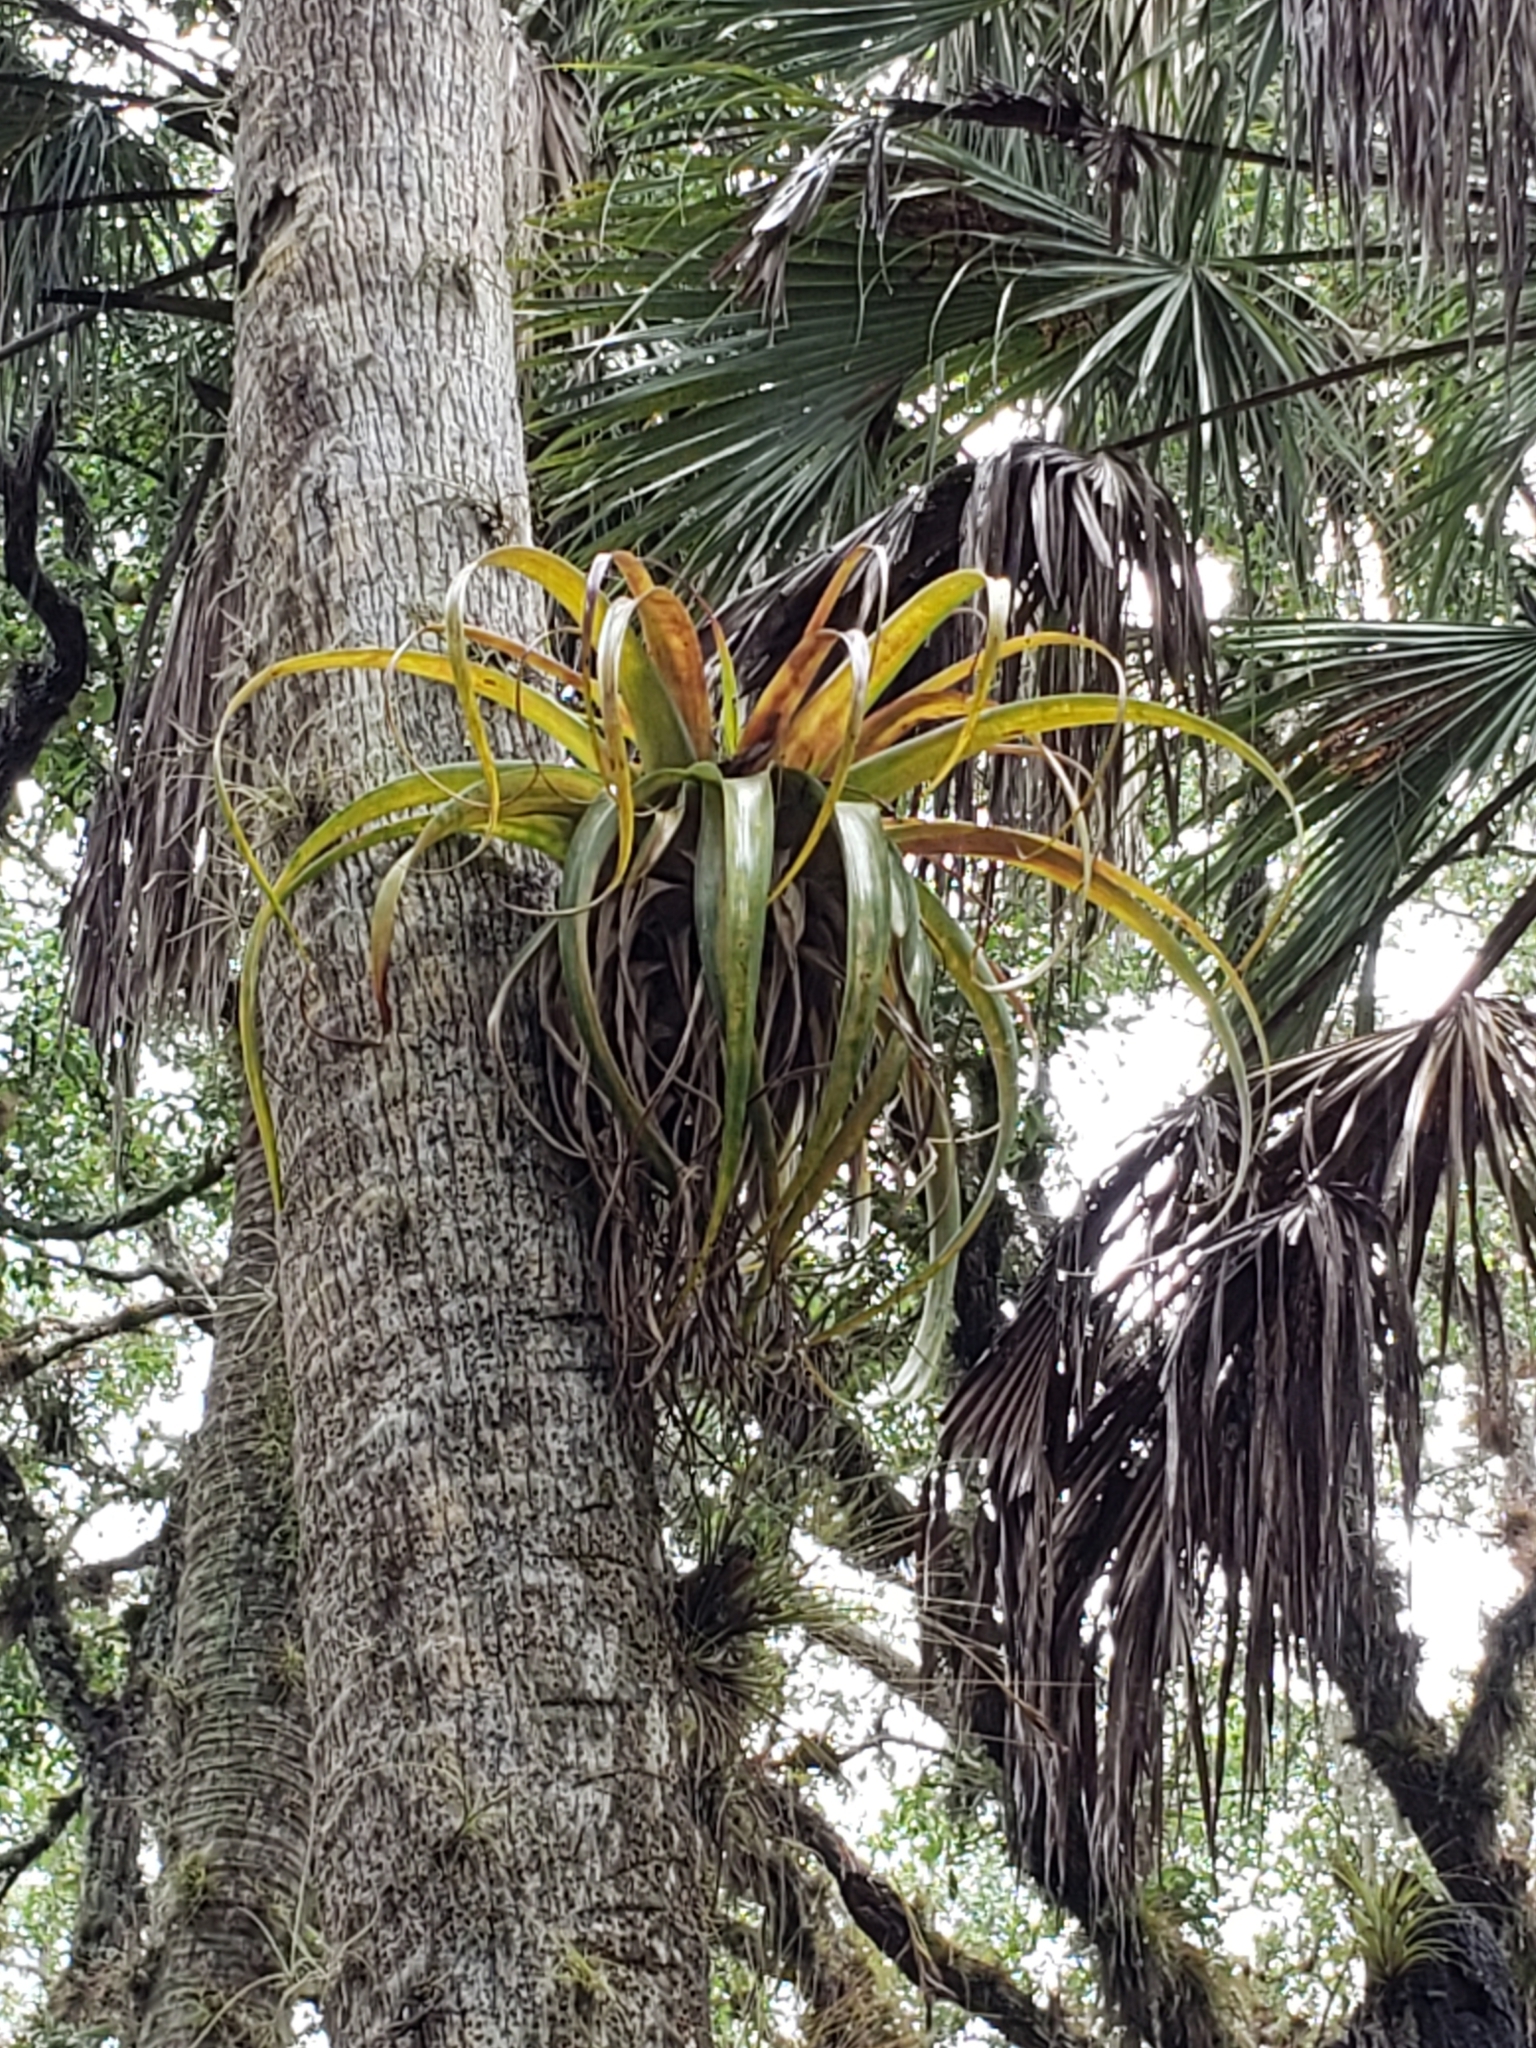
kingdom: Plantae
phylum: Tracheophyta
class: Liliopsida
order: Poales
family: Bromeliaceae
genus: Tillandsia
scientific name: Tillandsia utriculata
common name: Wild pine
